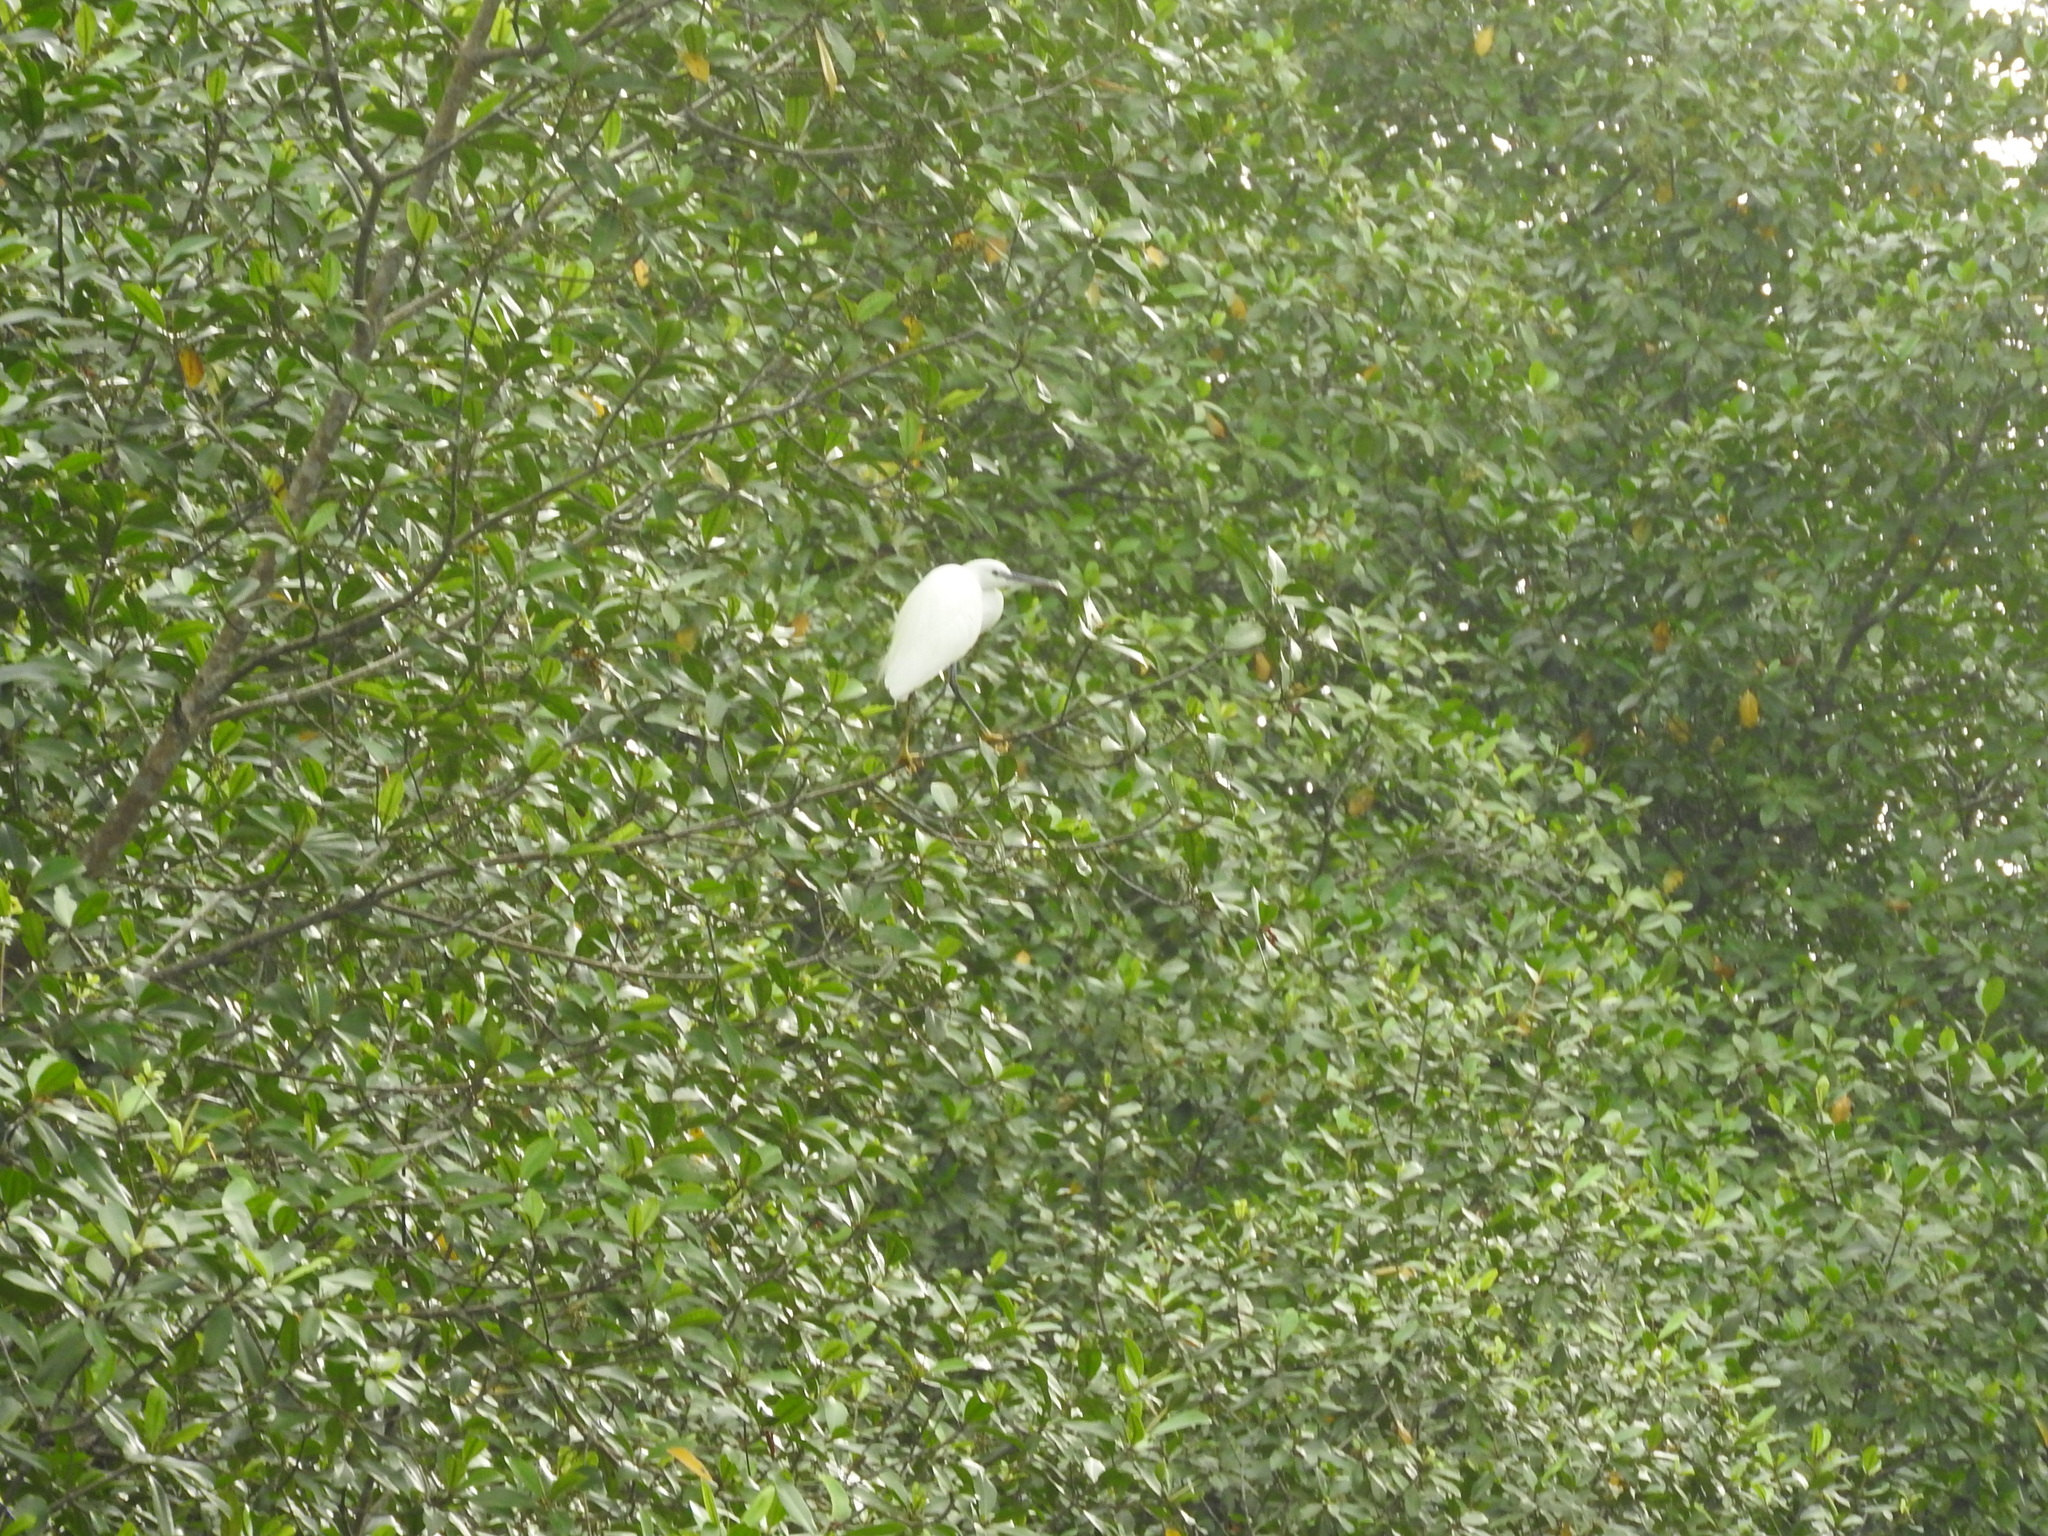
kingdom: Animalia
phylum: Chordata
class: Aves
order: Pelecaniformes
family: Ardeidae
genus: Egretta
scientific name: Egretta gularis
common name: Western reef-heron
